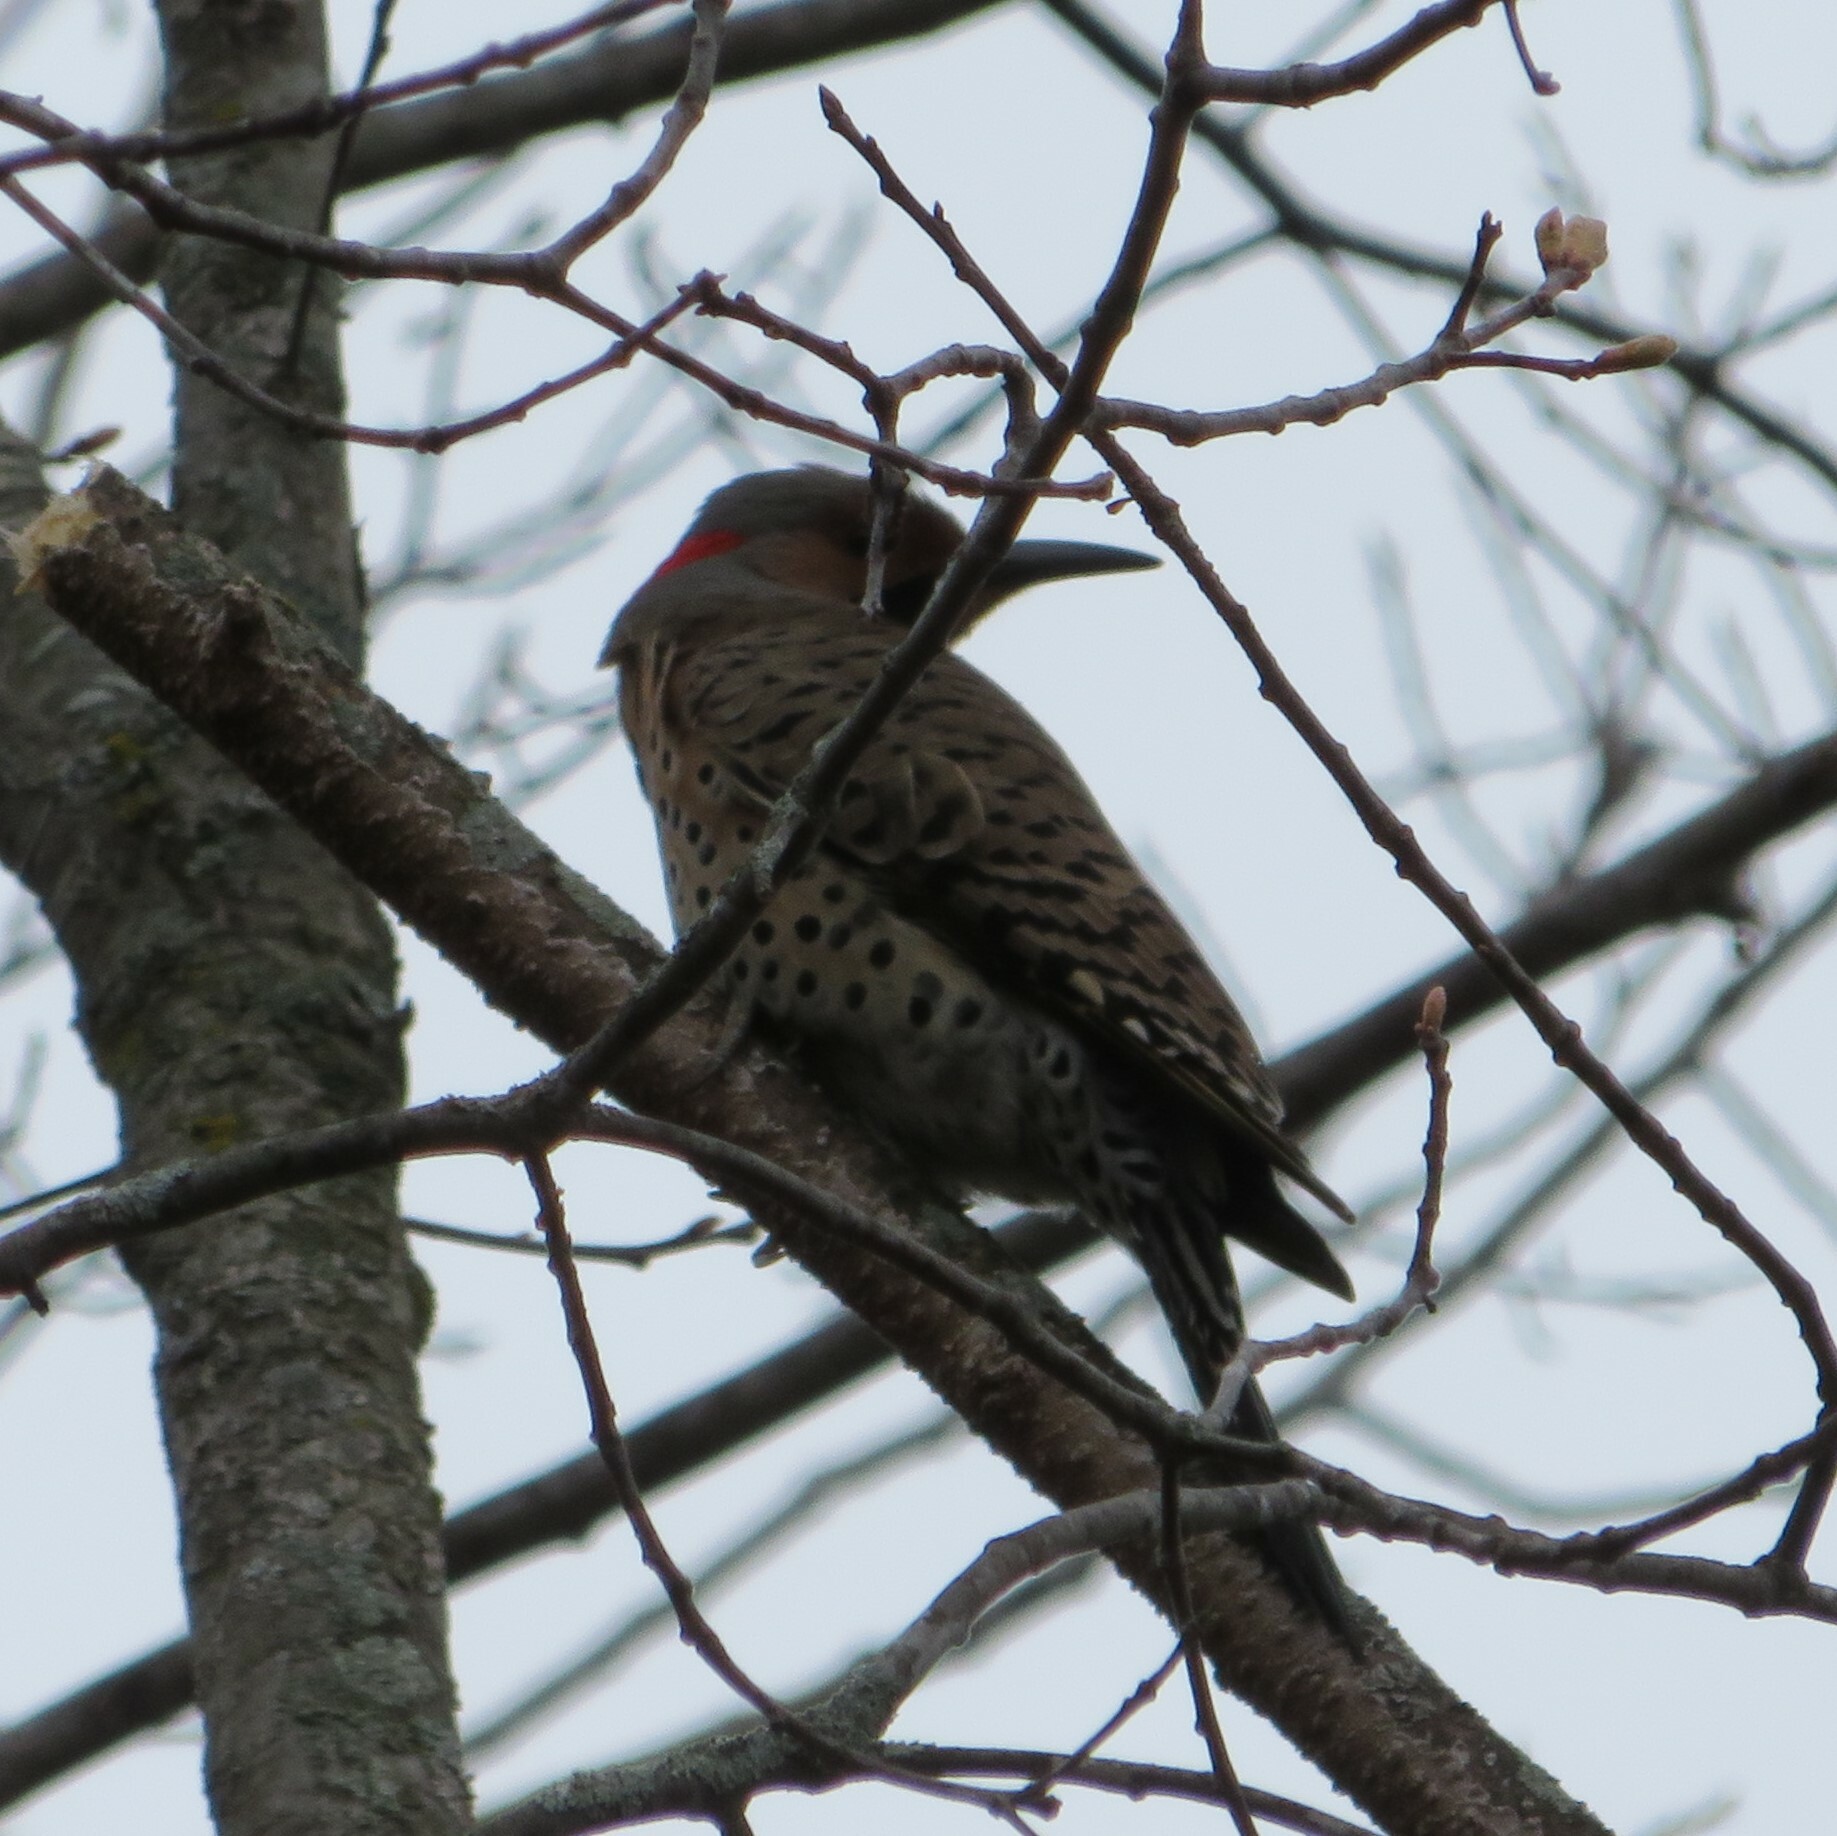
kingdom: Animalia
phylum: Chordata
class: Aves
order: Piciformes
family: Picidae
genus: Colaptes
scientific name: Colaptes auratus
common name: Northern flicker
